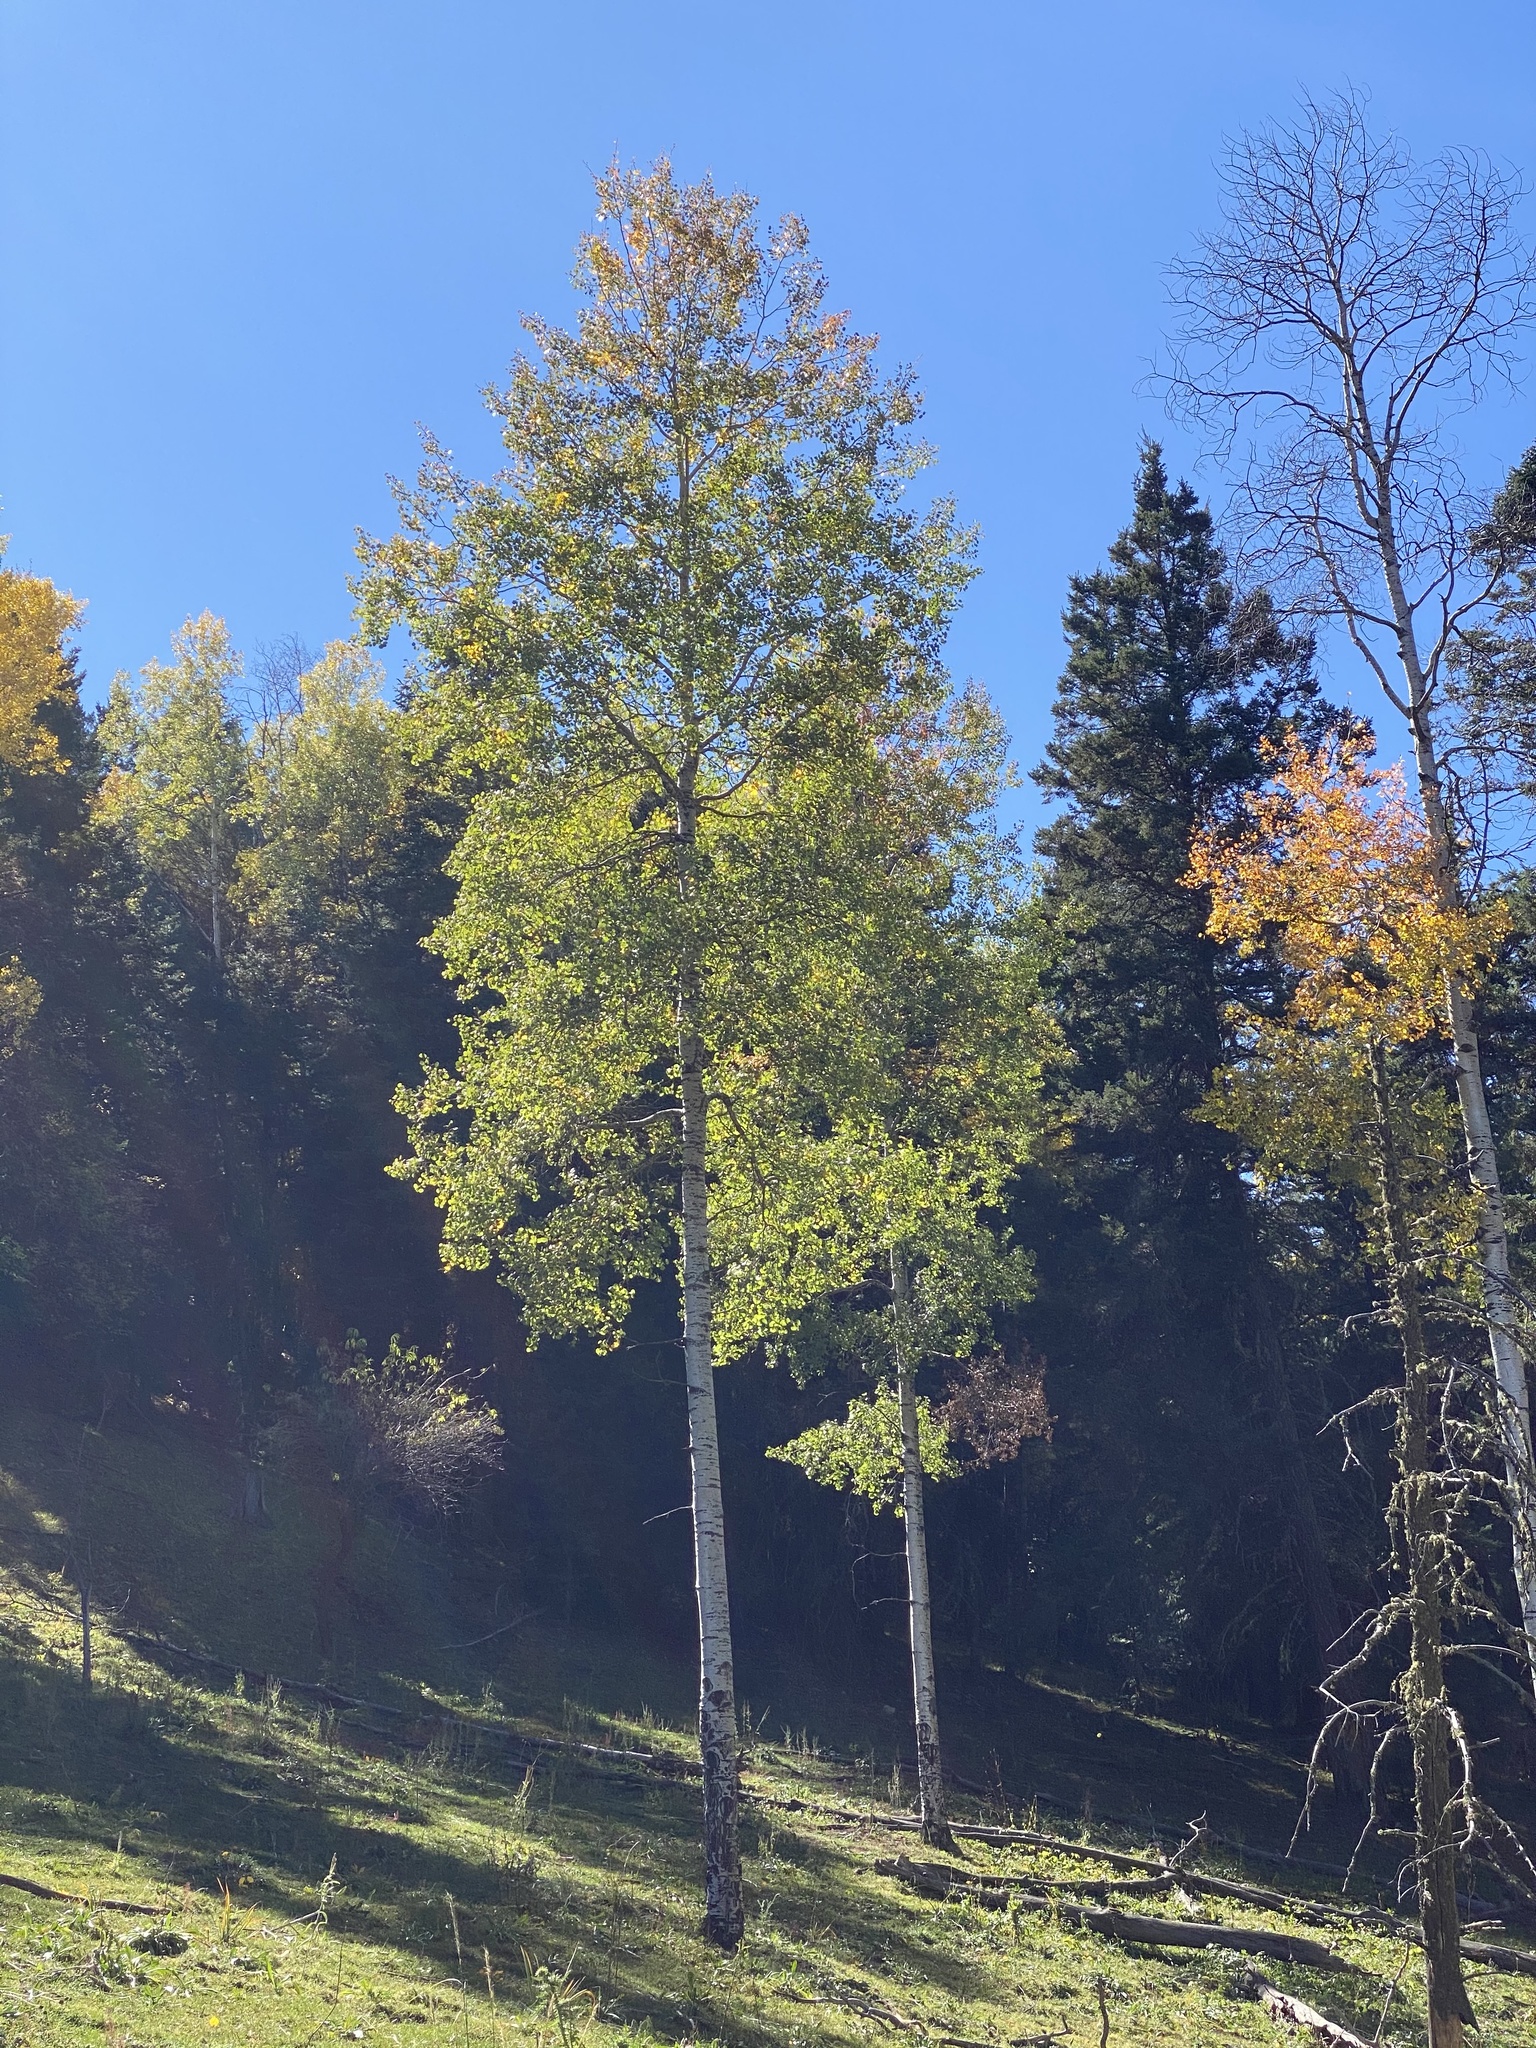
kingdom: Plantae
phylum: Tracheophyta
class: Magnoliopsida
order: Malpighiales
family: Salicaceae
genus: Populus
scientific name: Populus tremuloides
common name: Quaking aspen
